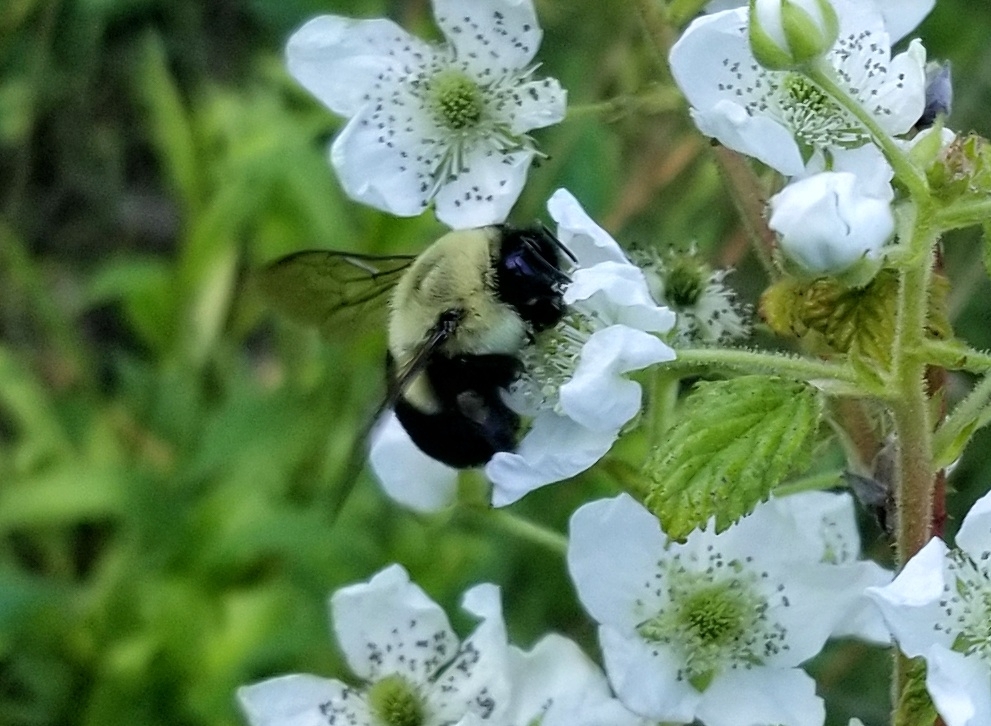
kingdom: Animalia
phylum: Arthropoda
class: Insecta
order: Hymenoptera
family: Apidae
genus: Bombus
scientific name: Bombus impatiens
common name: Common eastern bumble bee
